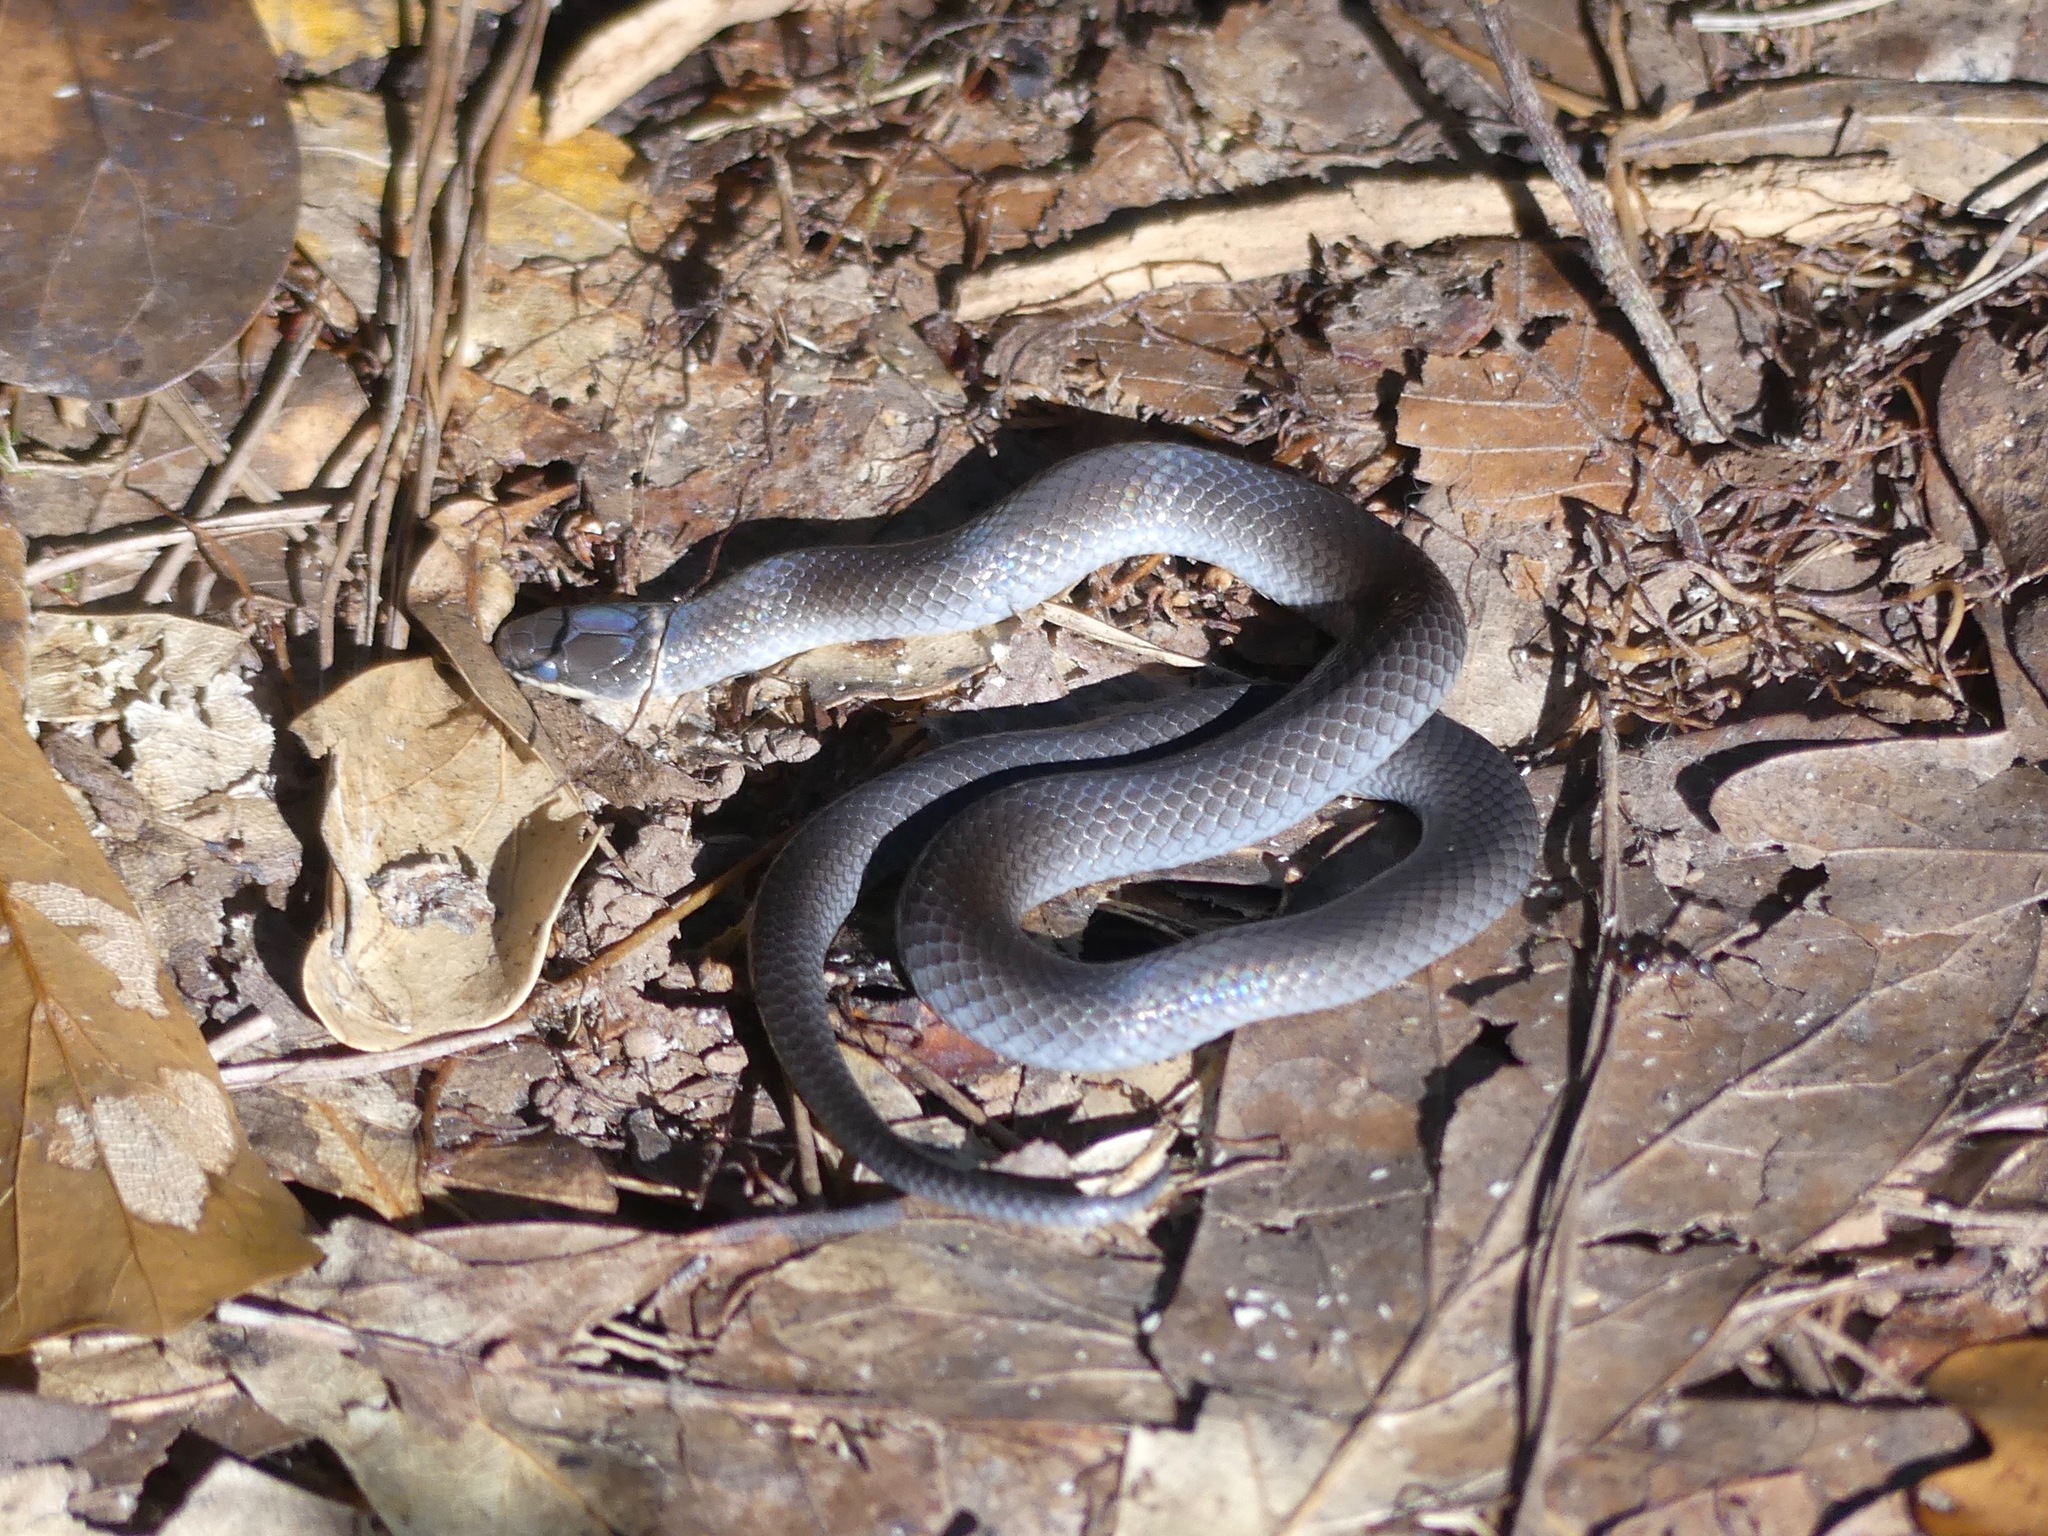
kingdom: Animalia
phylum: Chordata
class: Squamata
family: Colubridae
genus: Diadophis
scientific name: Diadophis punctatus
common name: Ringneck snake
